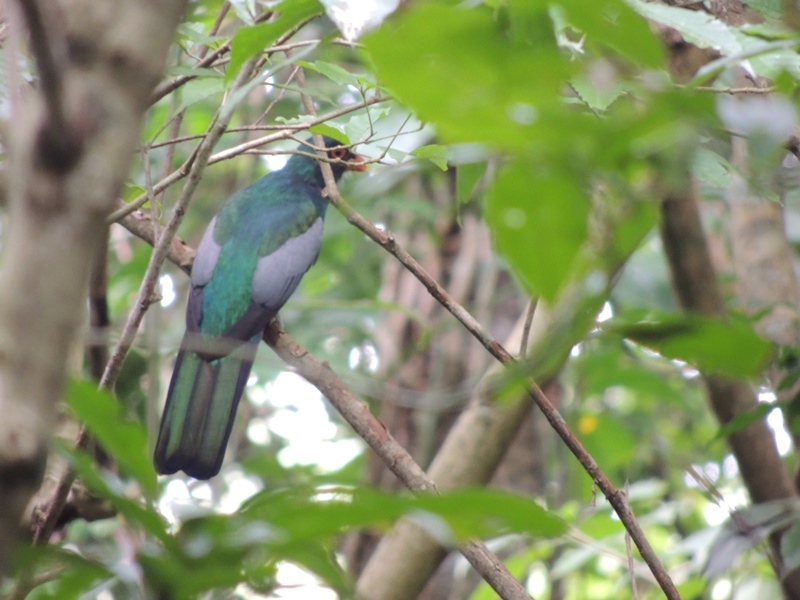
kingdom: Animalia
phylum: Chordata
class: Aves
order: Trogoniformes
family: Trogonidae
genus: Trogon
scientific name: Trogon massena
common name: Slaty-tailed trogon
